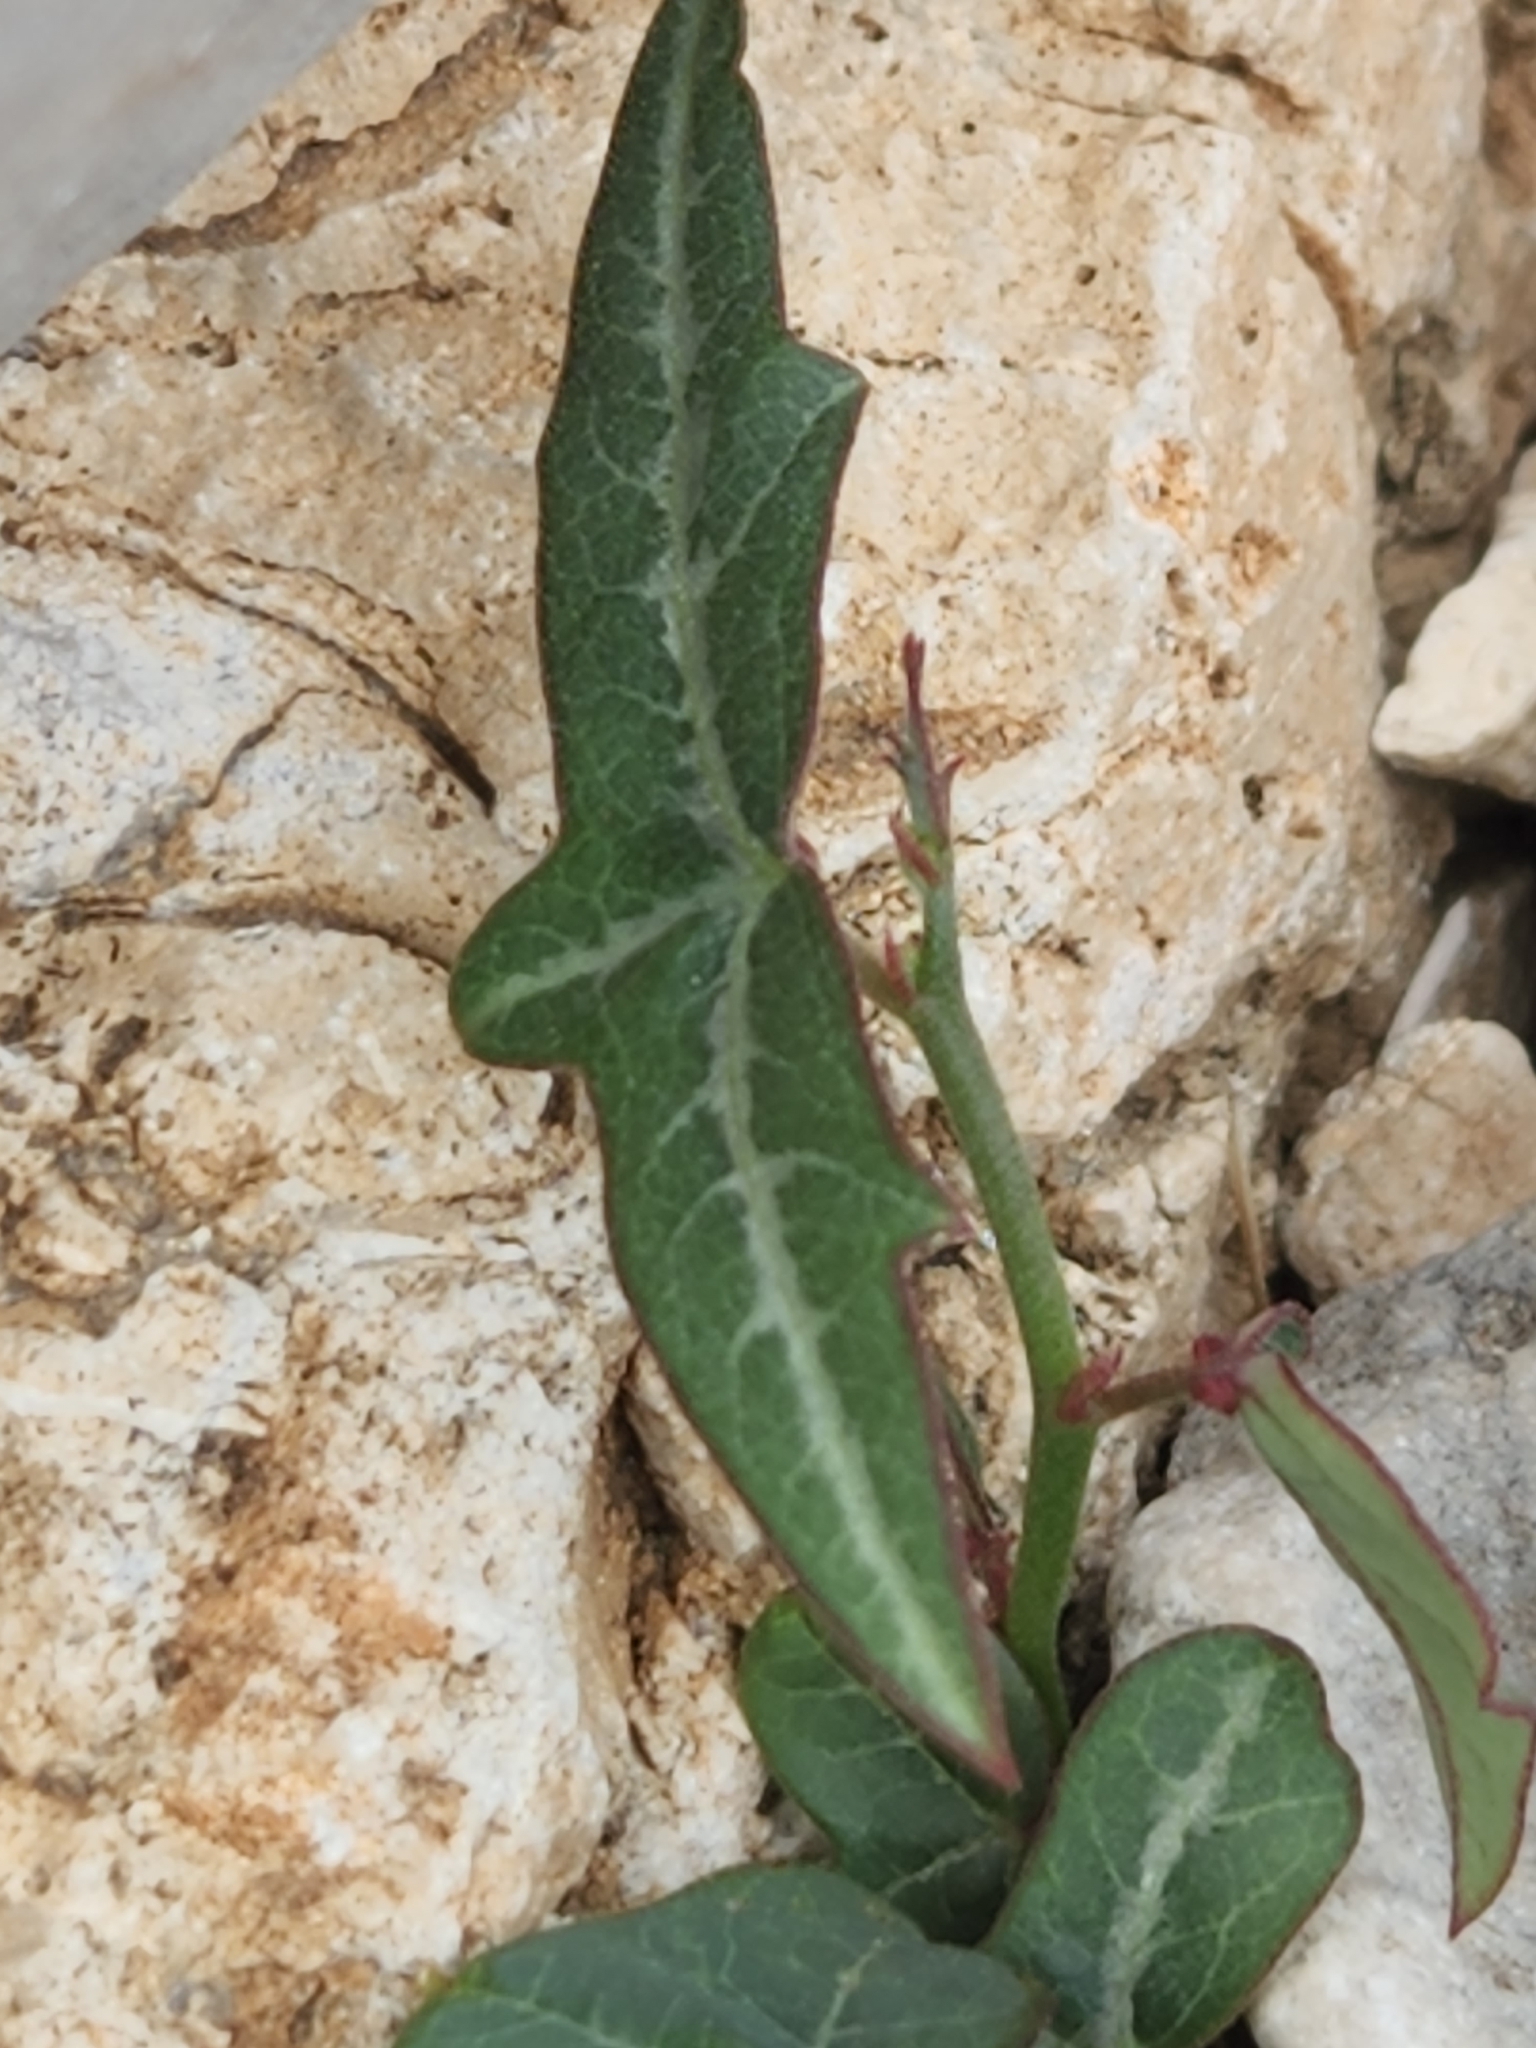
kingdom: Plantae
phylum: Tracheophyta
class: Magnoliopsida
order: Malpighiales
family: Passifloraceae
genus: Passiflora
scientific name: Passiflora tenuiloba
